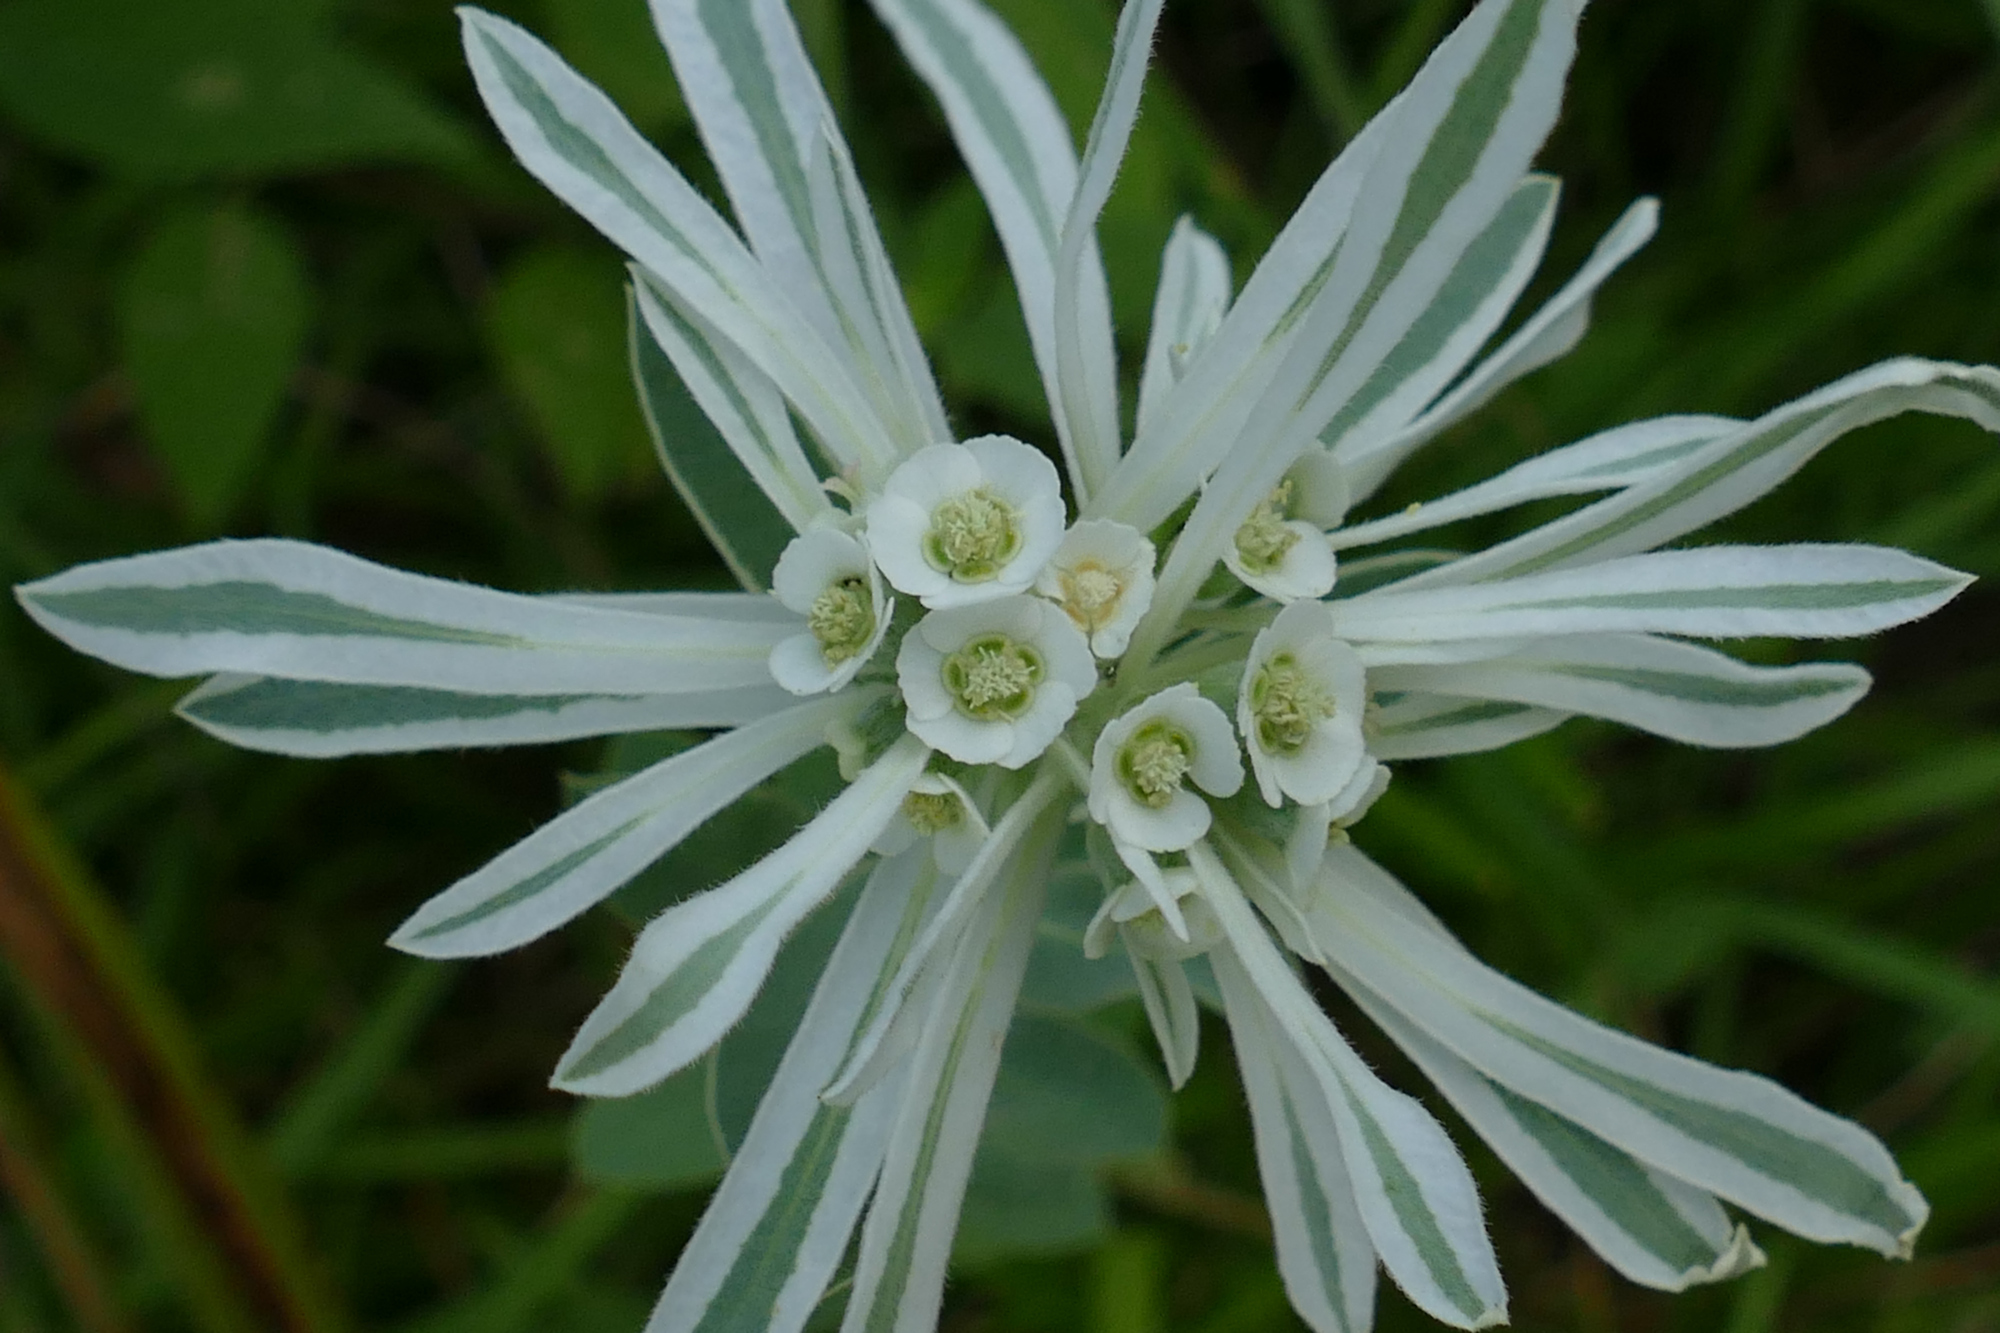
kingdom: Plantae
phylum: Tracheophyta
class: Magnoliopsida
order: Malpighiales
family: Euphorbiaceae
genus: Euphorbia
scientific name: Euphorbia bicolor
